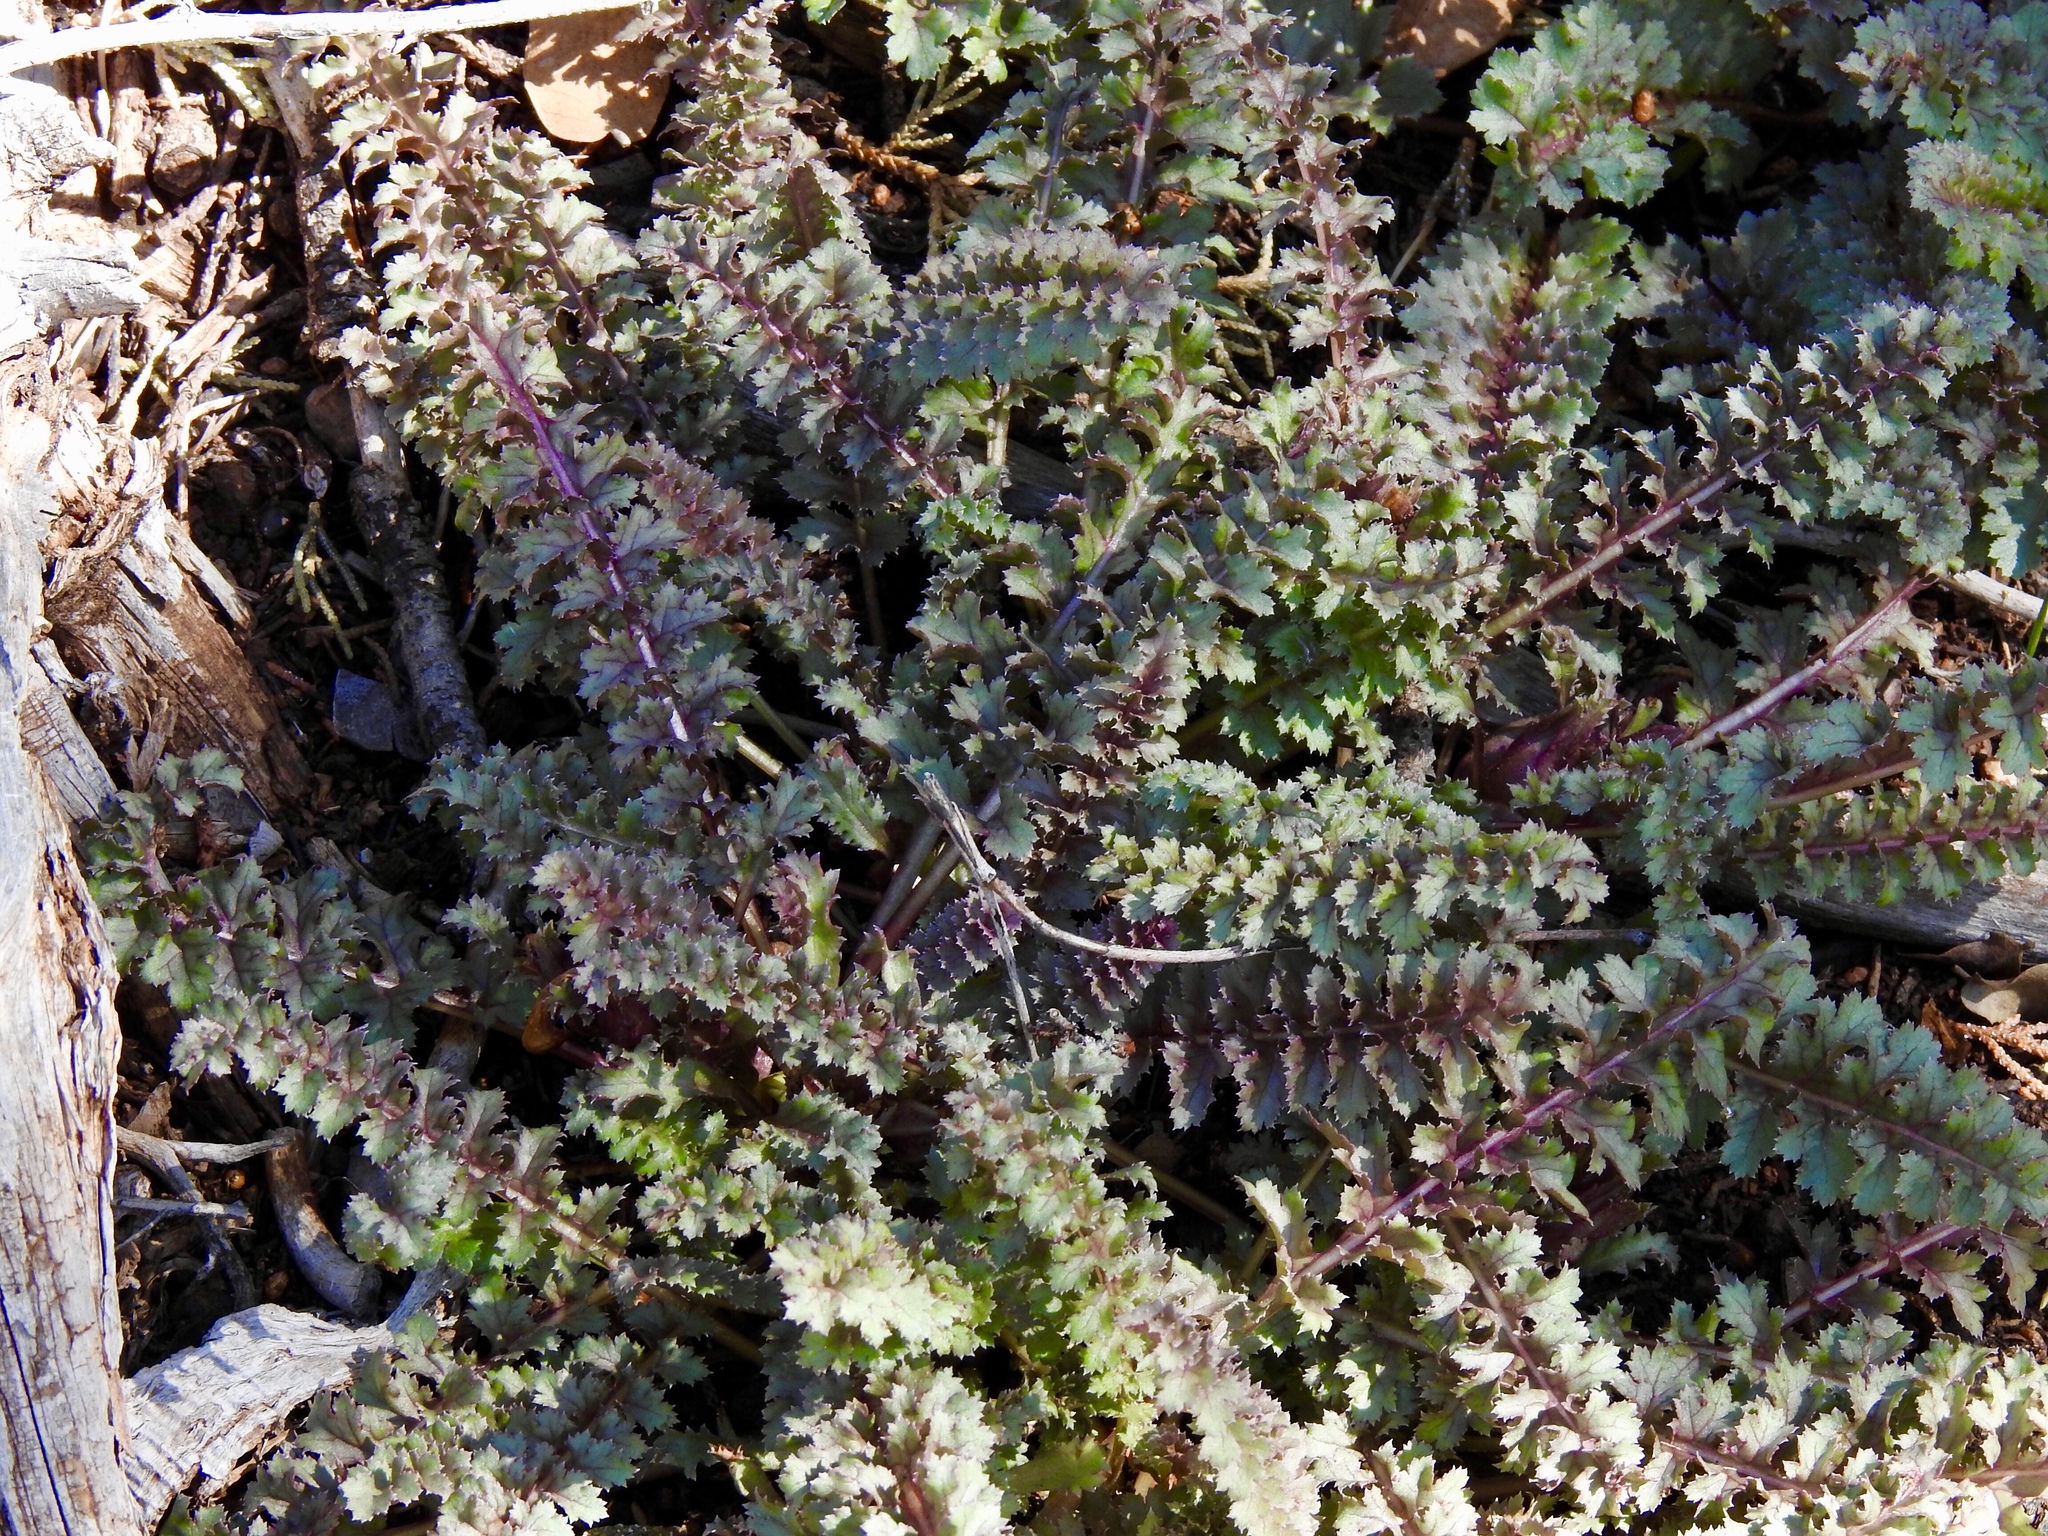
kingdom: Plantae
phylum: Tracheophyta
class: Magnoliopsida
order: Lamiales
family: Orobanchaceae
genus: Pedicularis
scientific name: Pedicularis centranthera
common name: Dwarf lousewort
